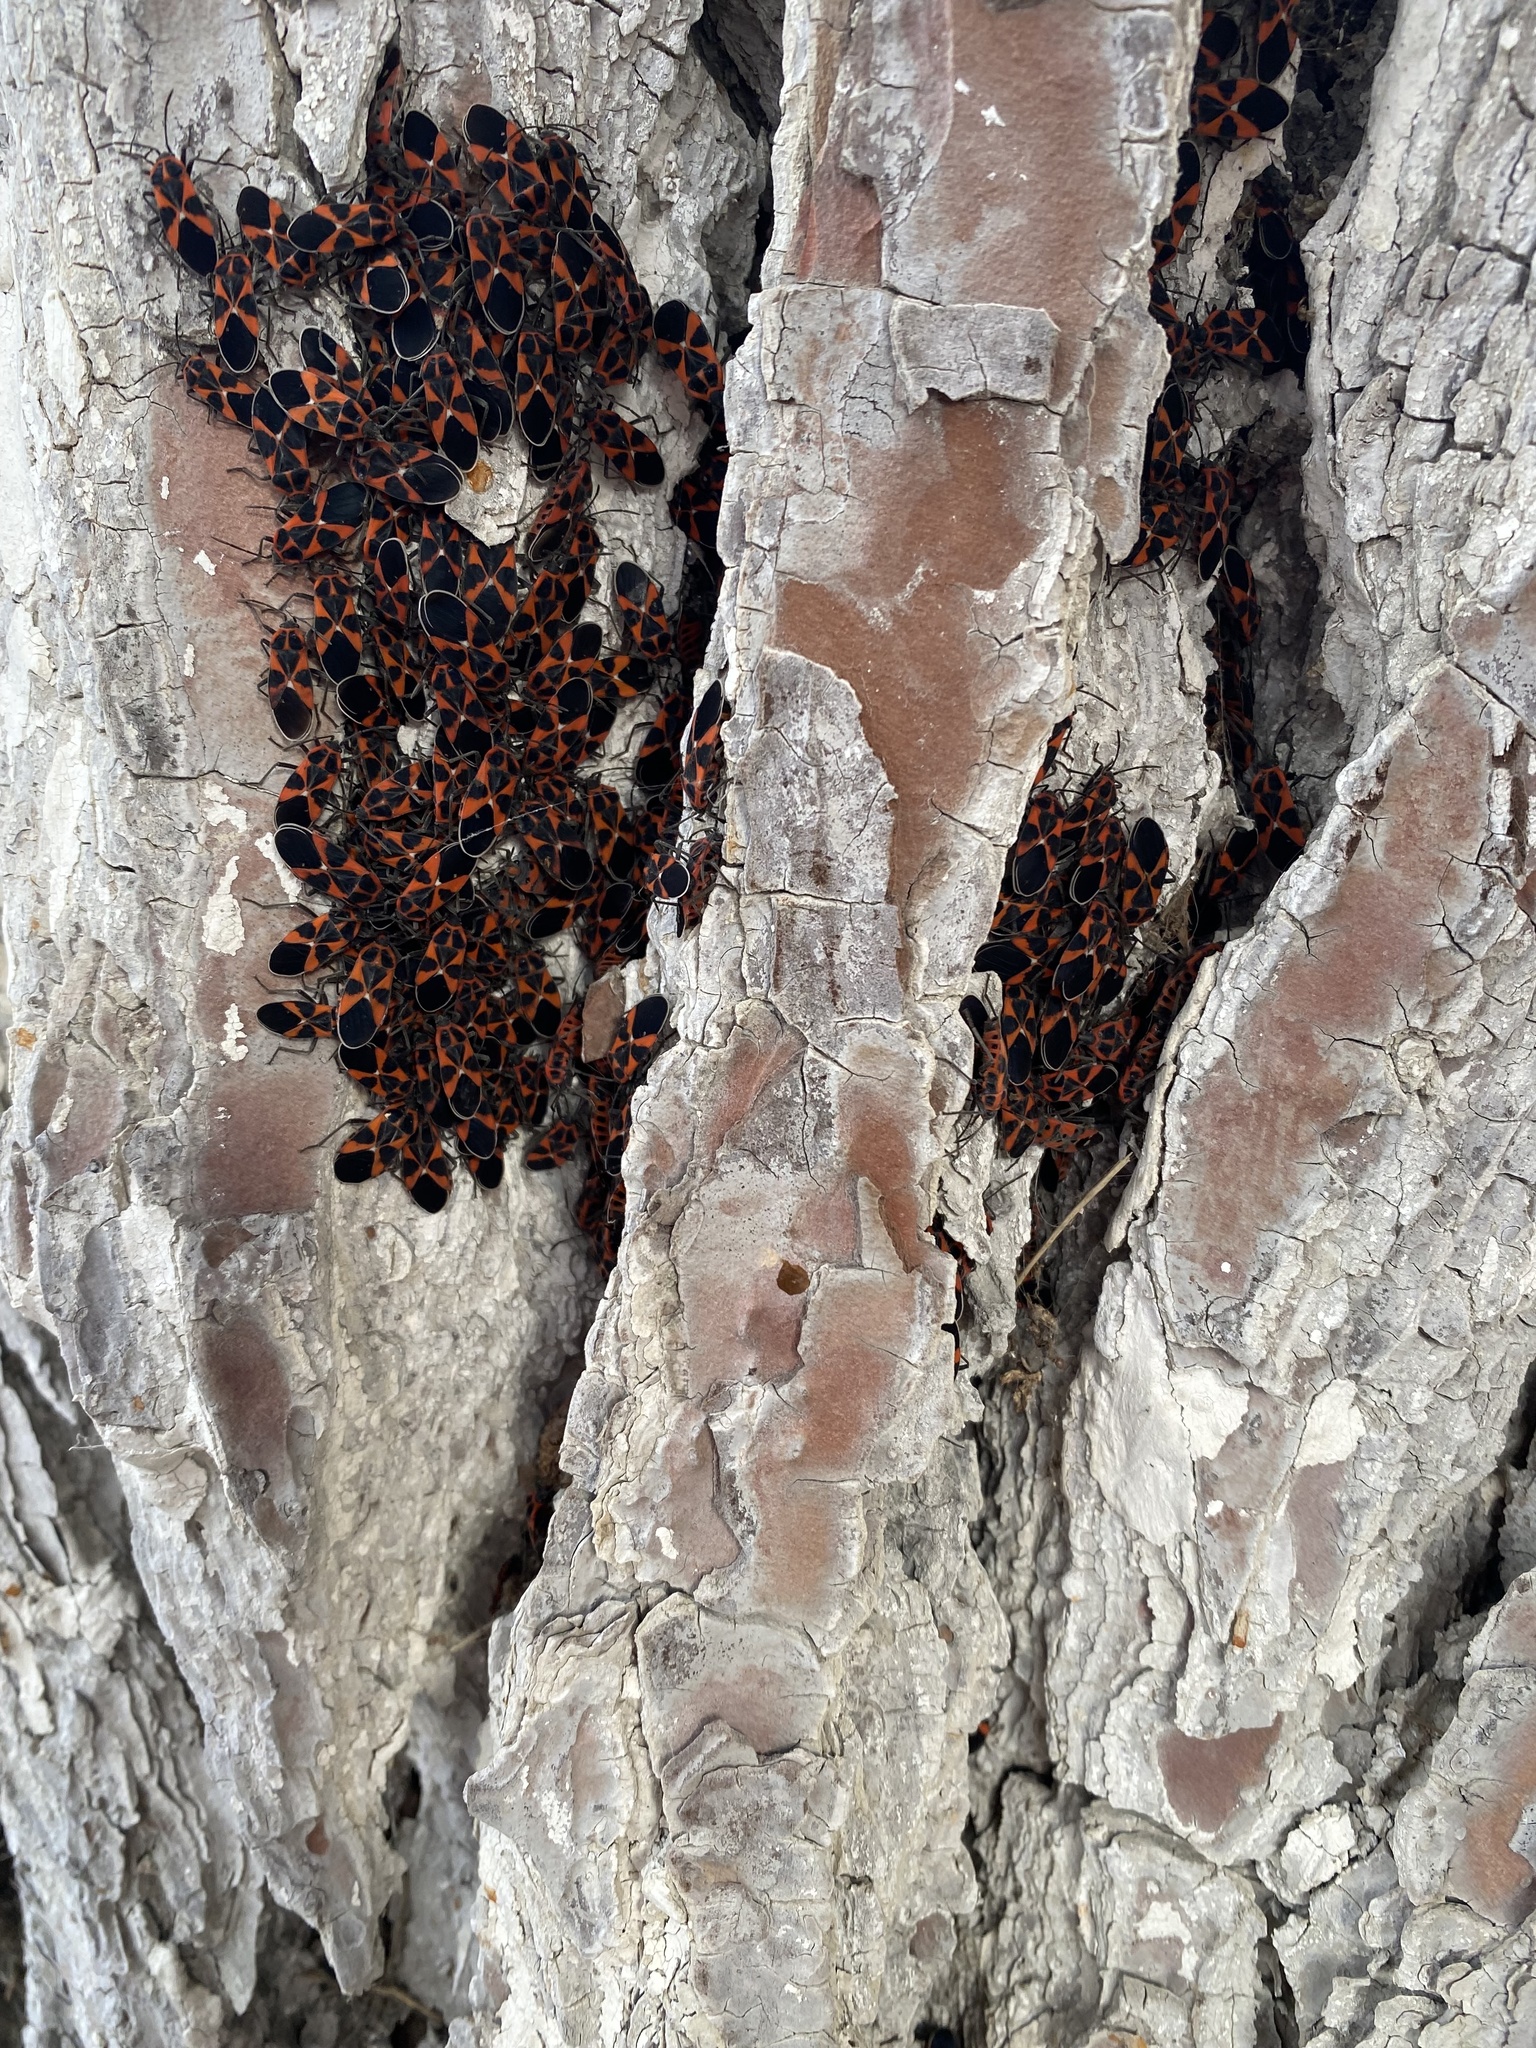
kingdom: Animalia
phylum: Arthropoda
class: Insecta
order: Hemiptera
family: Lygaeidae
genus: Tropidothorax
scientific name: Tropidothorax leucopterus
